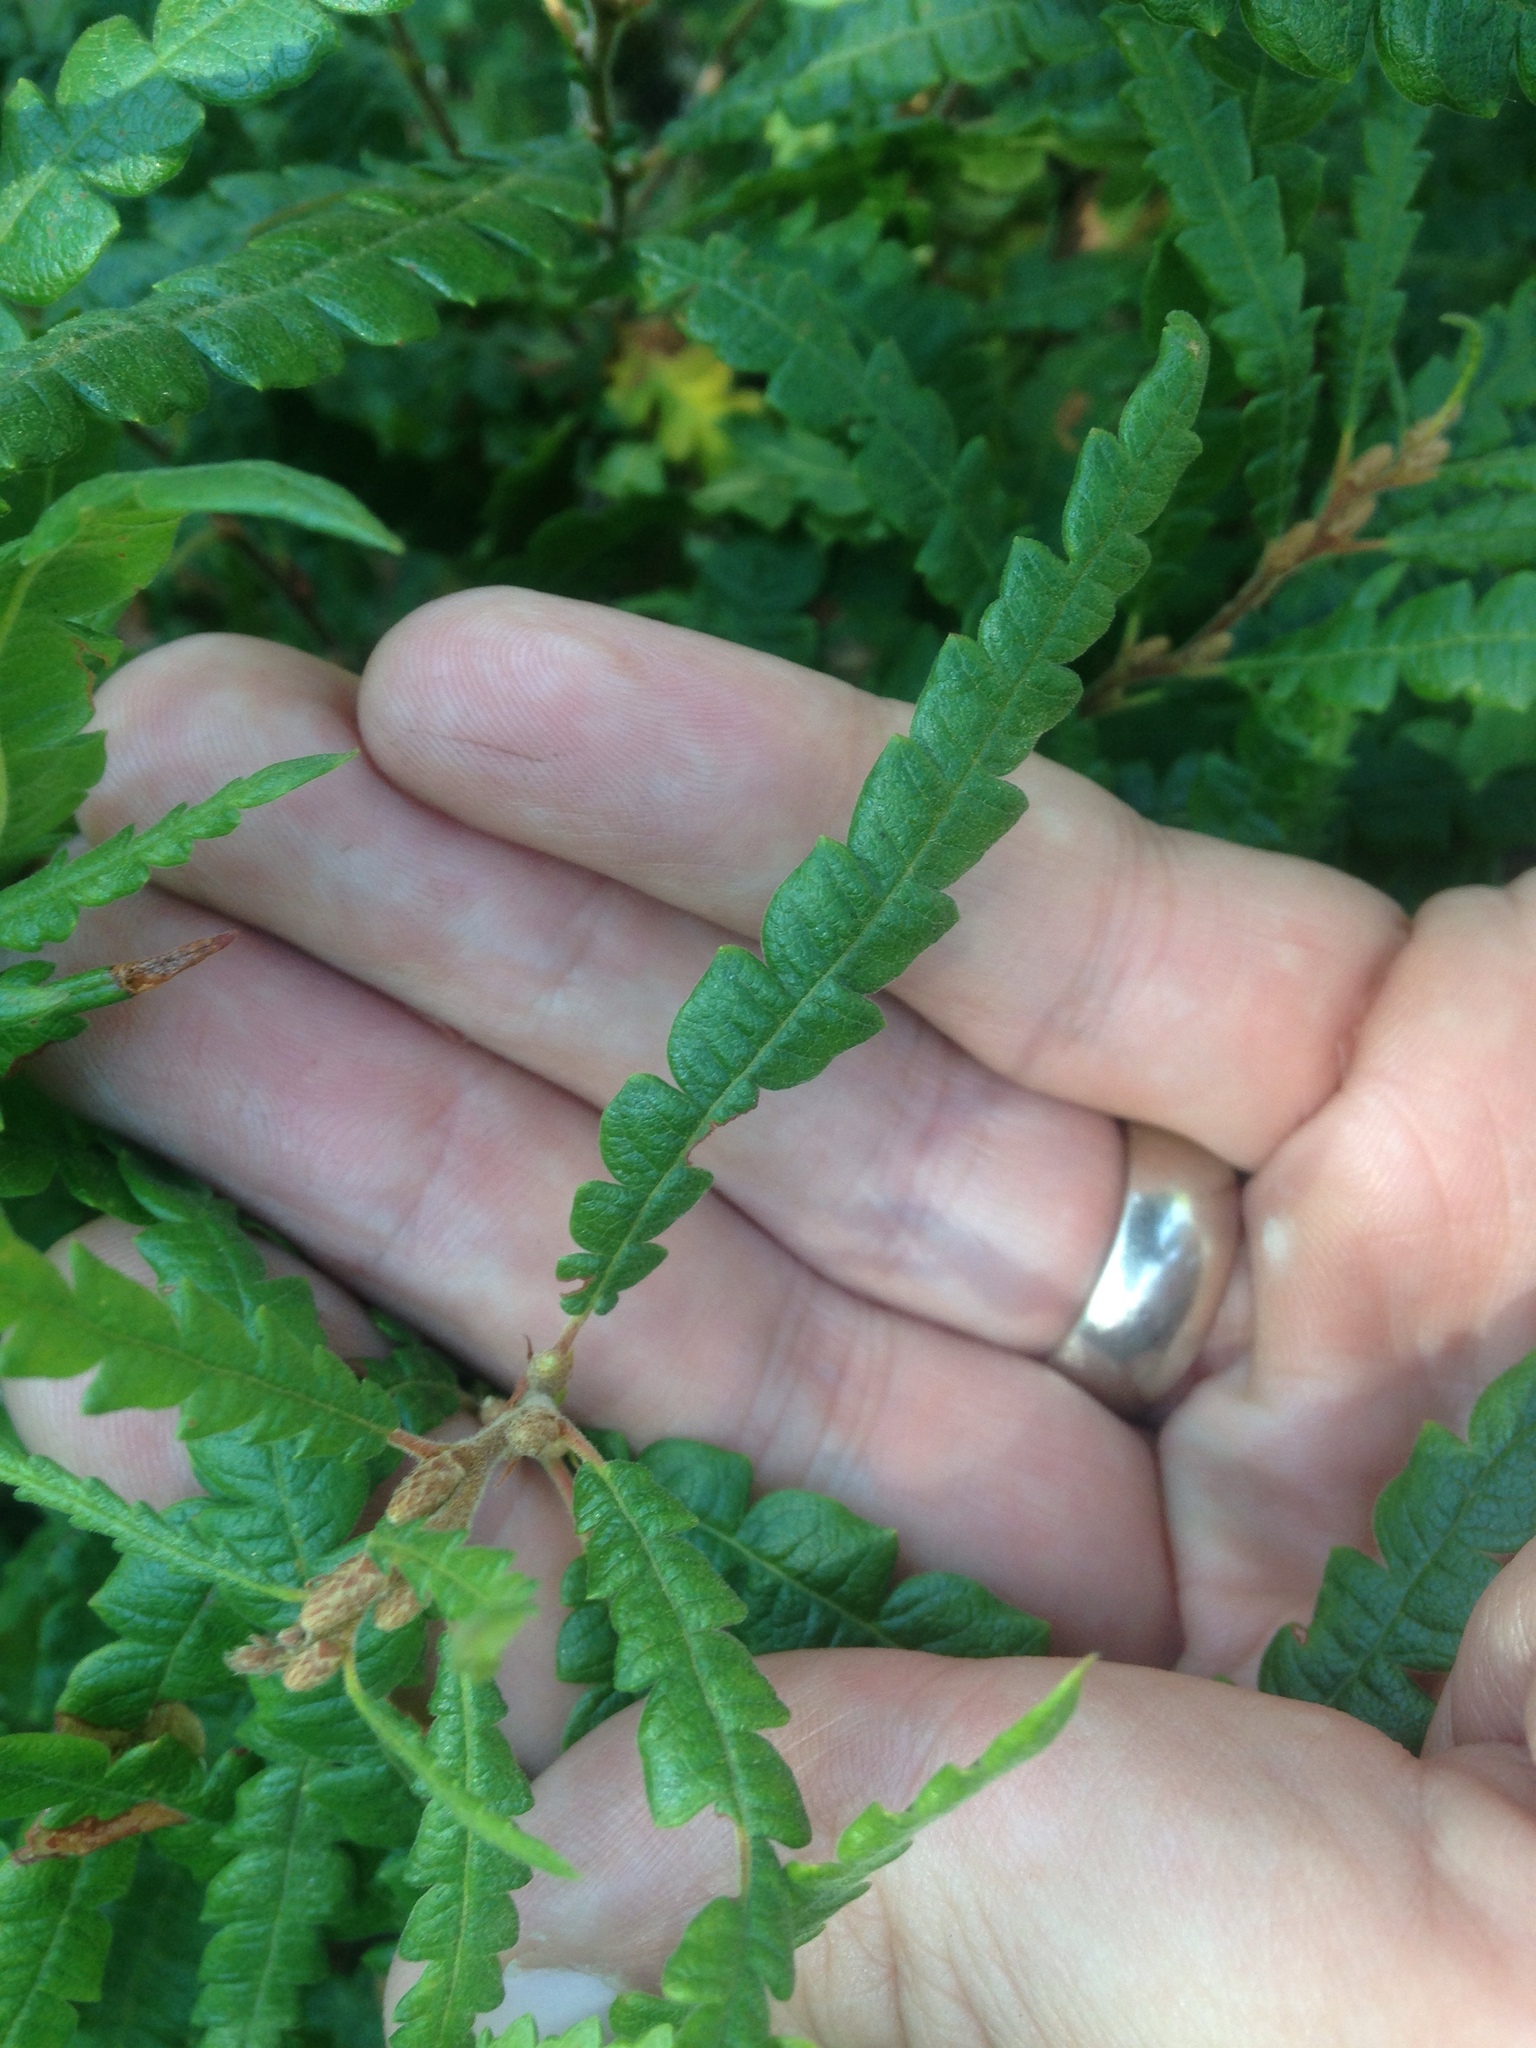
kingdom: Plantae
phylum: Tracheophyta
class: Magnoliopsida
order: Fagales
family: Myricaceae
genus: Comptonia
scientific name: Comptonia peregrina
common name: Sweet-fern
